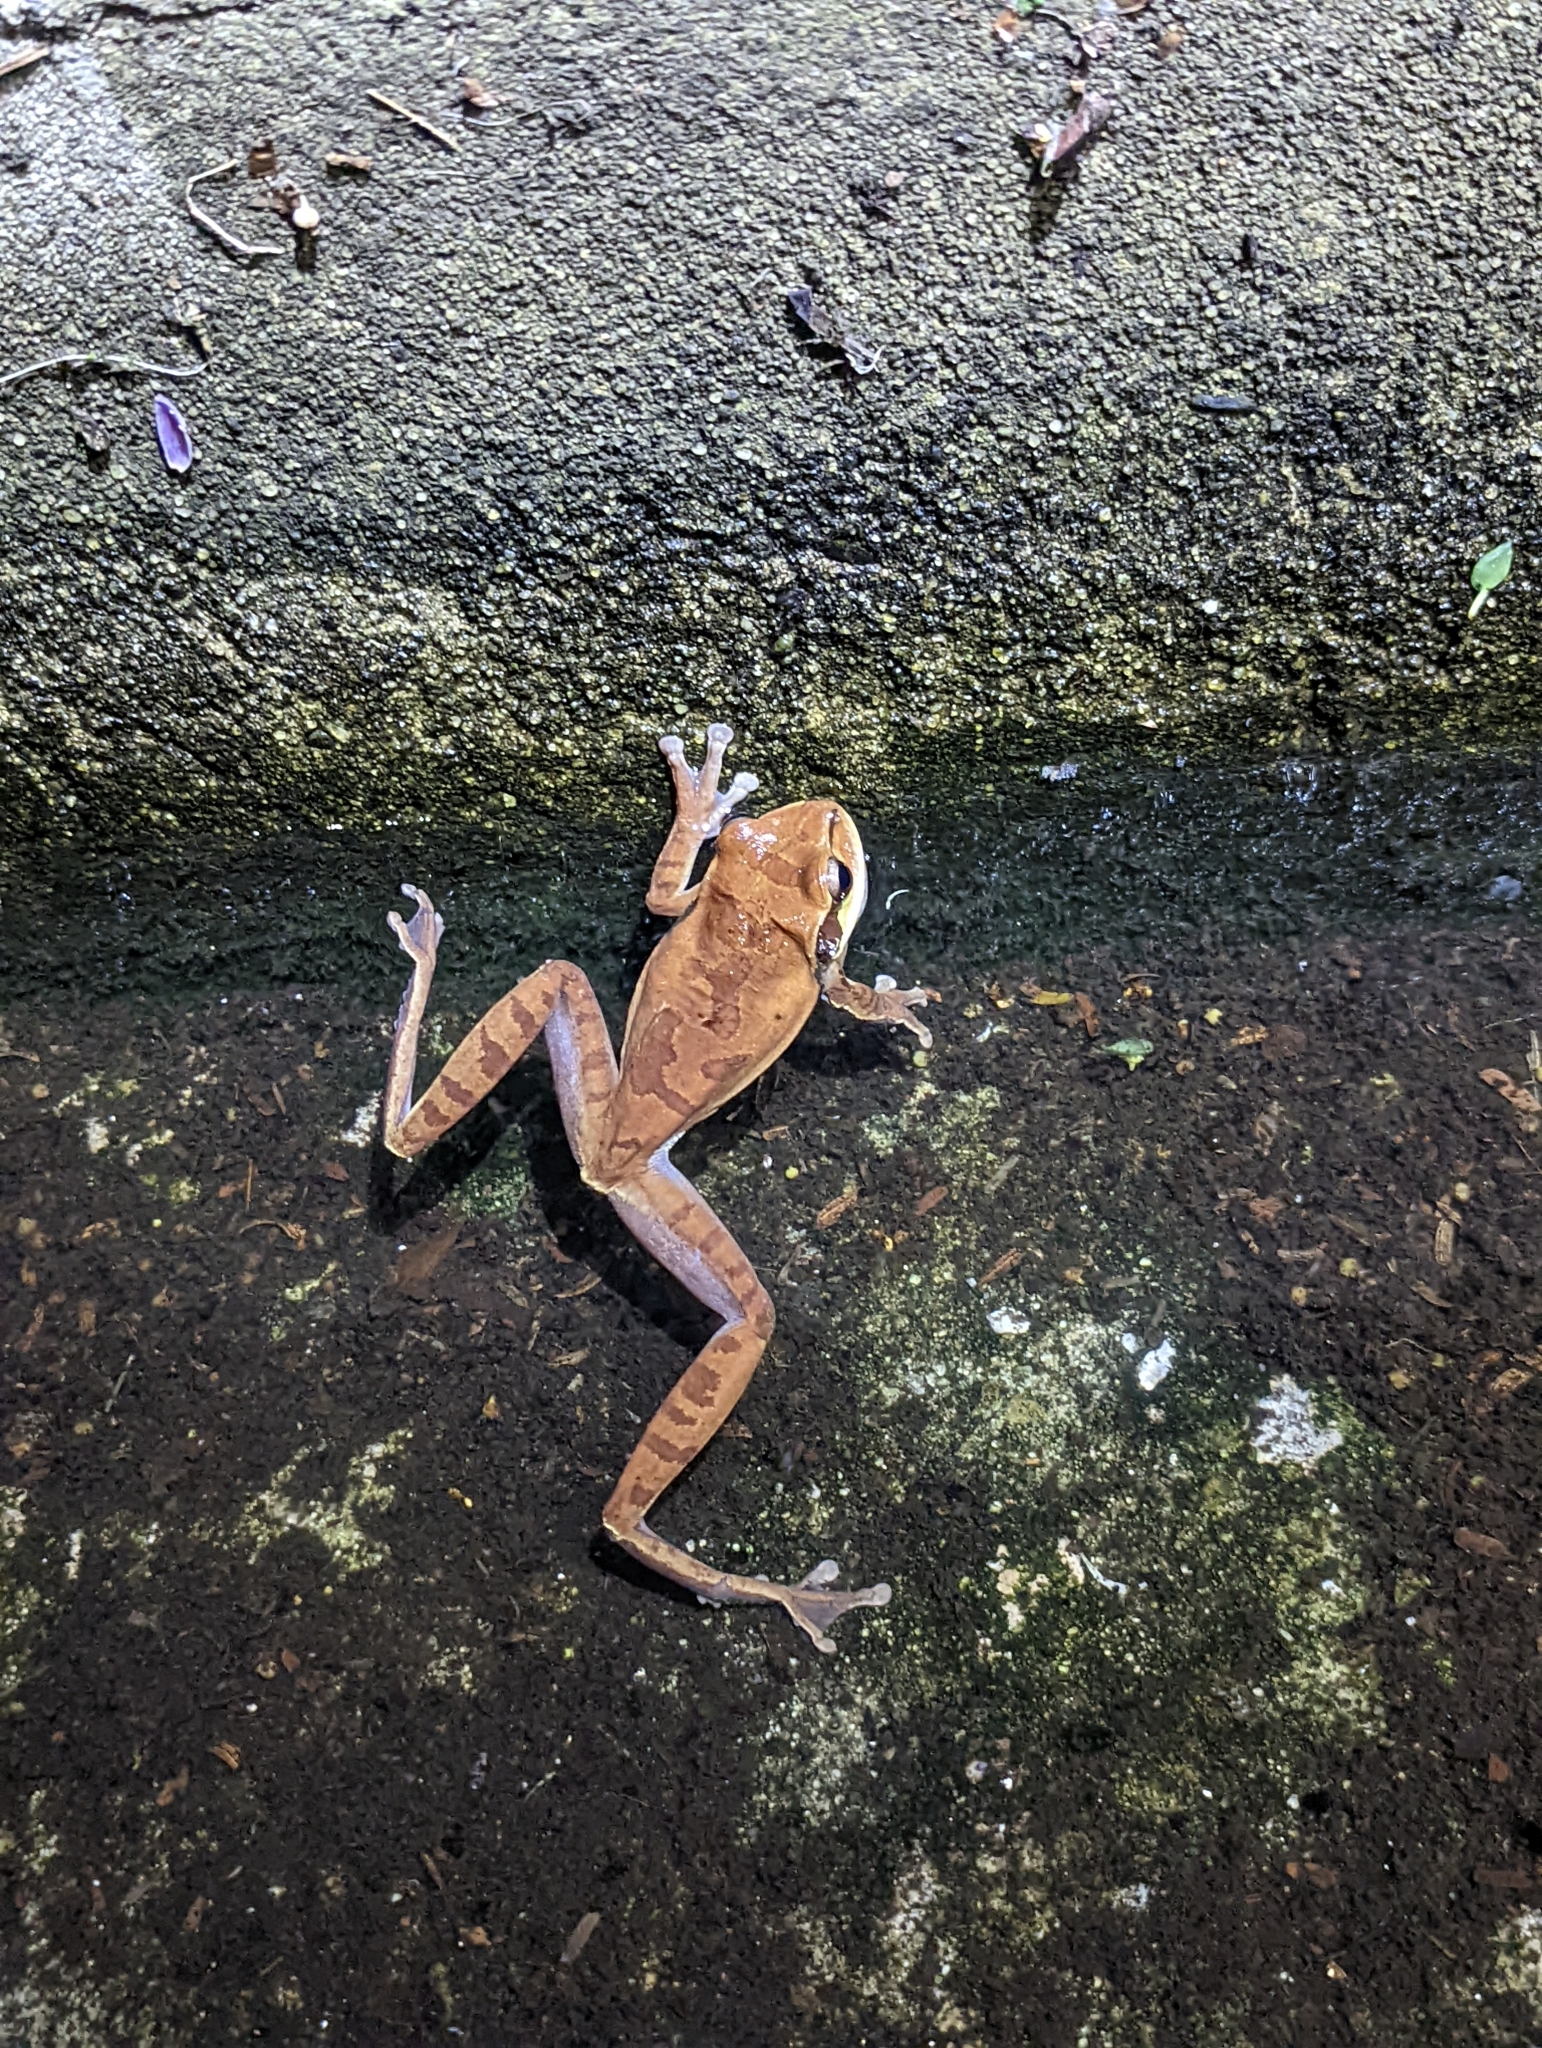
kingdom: Animalia
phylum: Chordata
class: Amphibia
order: Anura
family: Hylidae
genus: Smilisca
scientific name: Smilisca phaeota
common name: Central american smilisca
